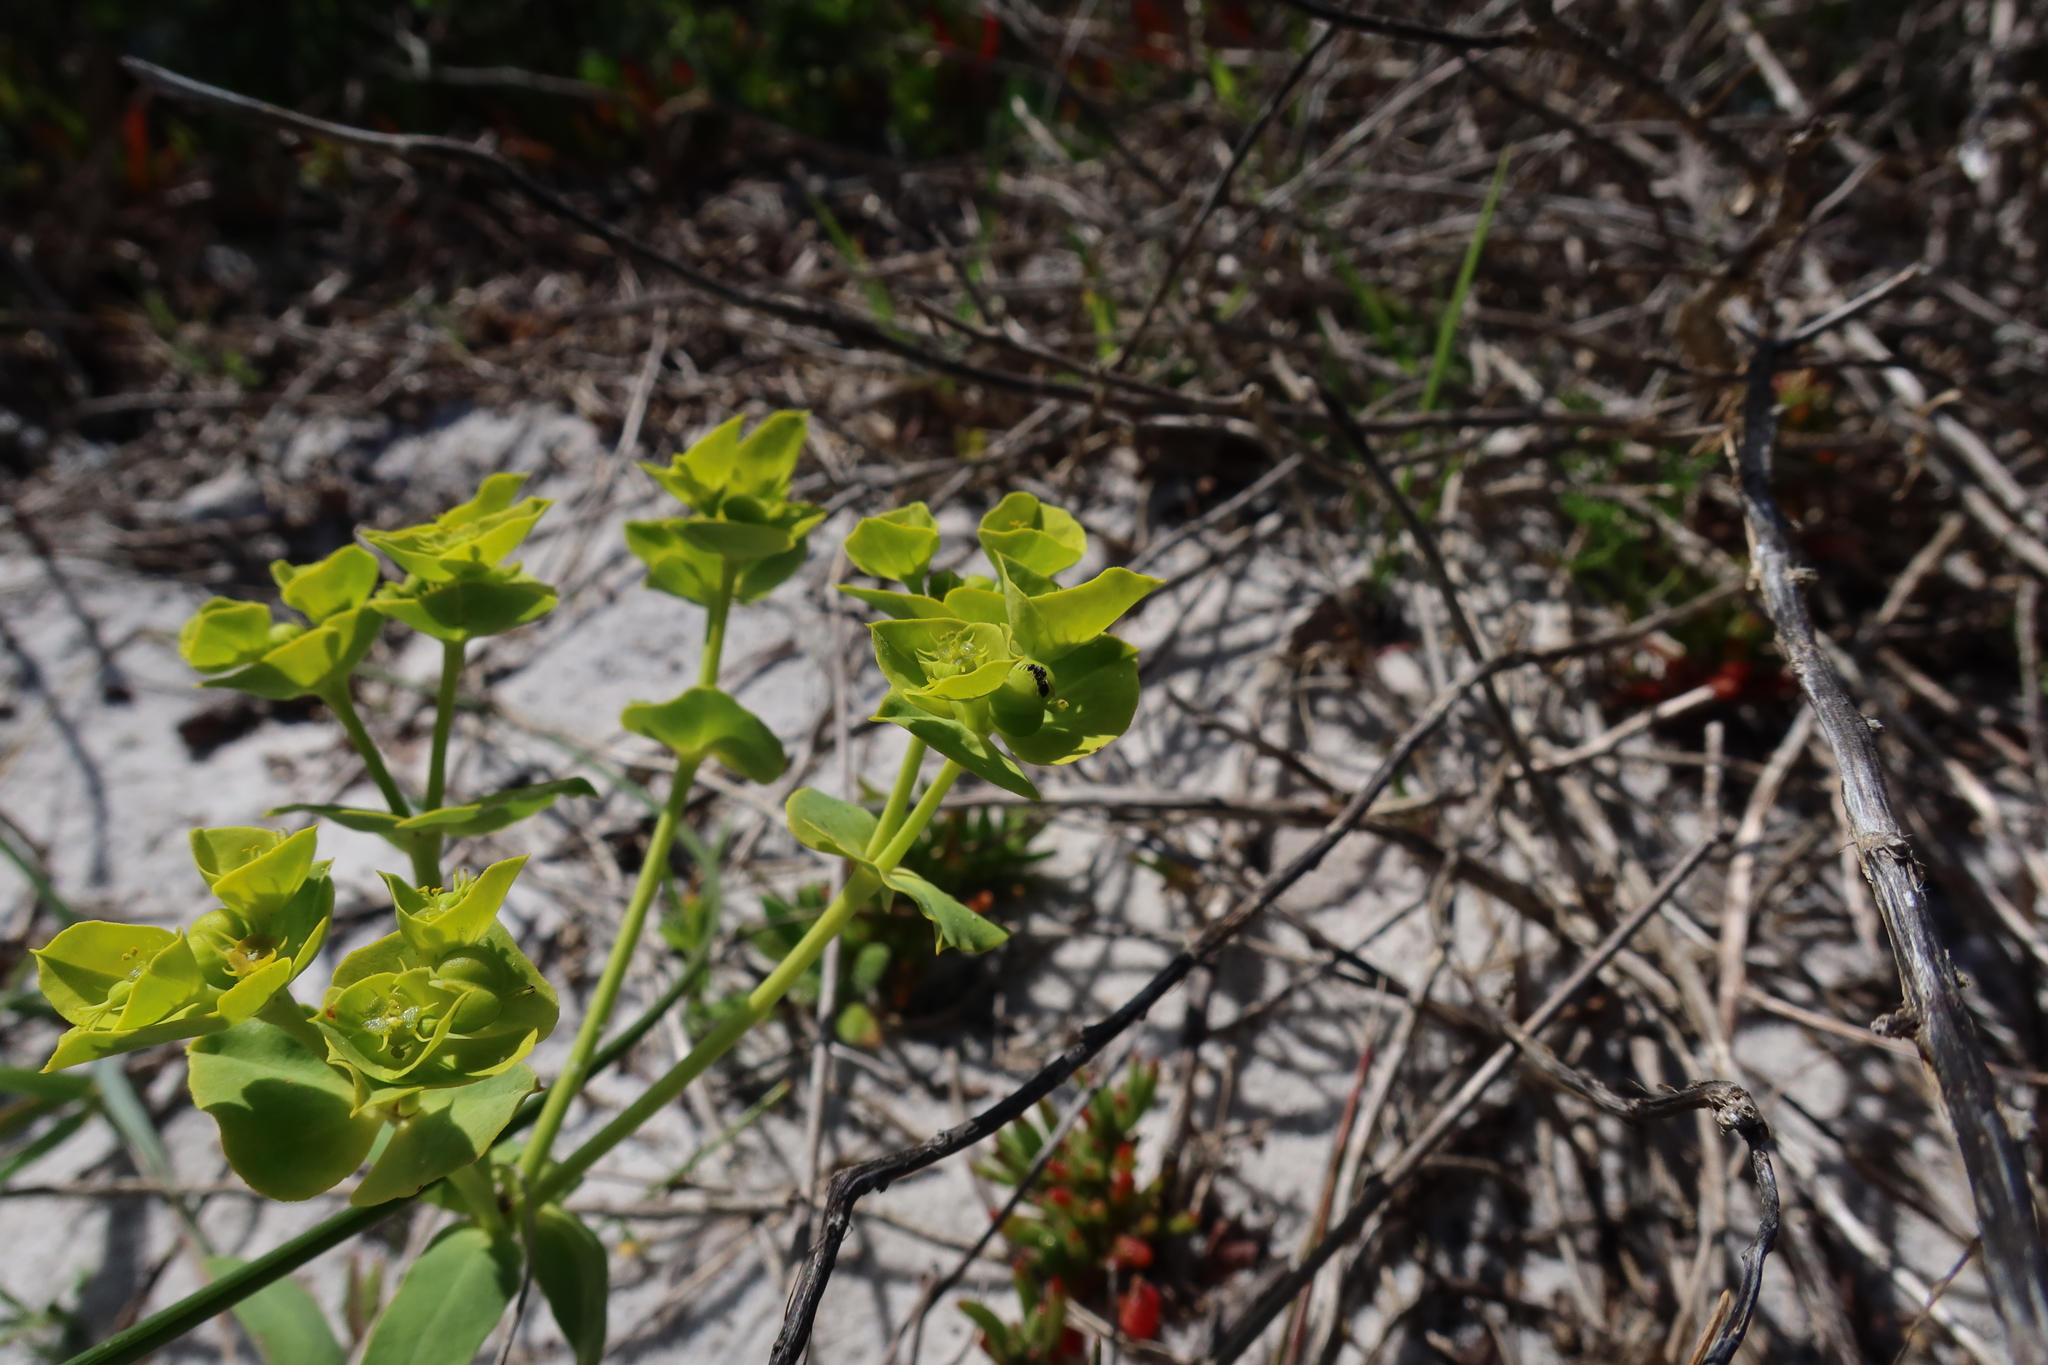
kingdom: Plantae
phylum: Tracheophyta
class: Magnoliopsida
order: Malpighiales
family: Euphorbiaceae
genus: Euphorbia
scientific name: Euphorbia terracina
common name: Geraldton carnation weed
